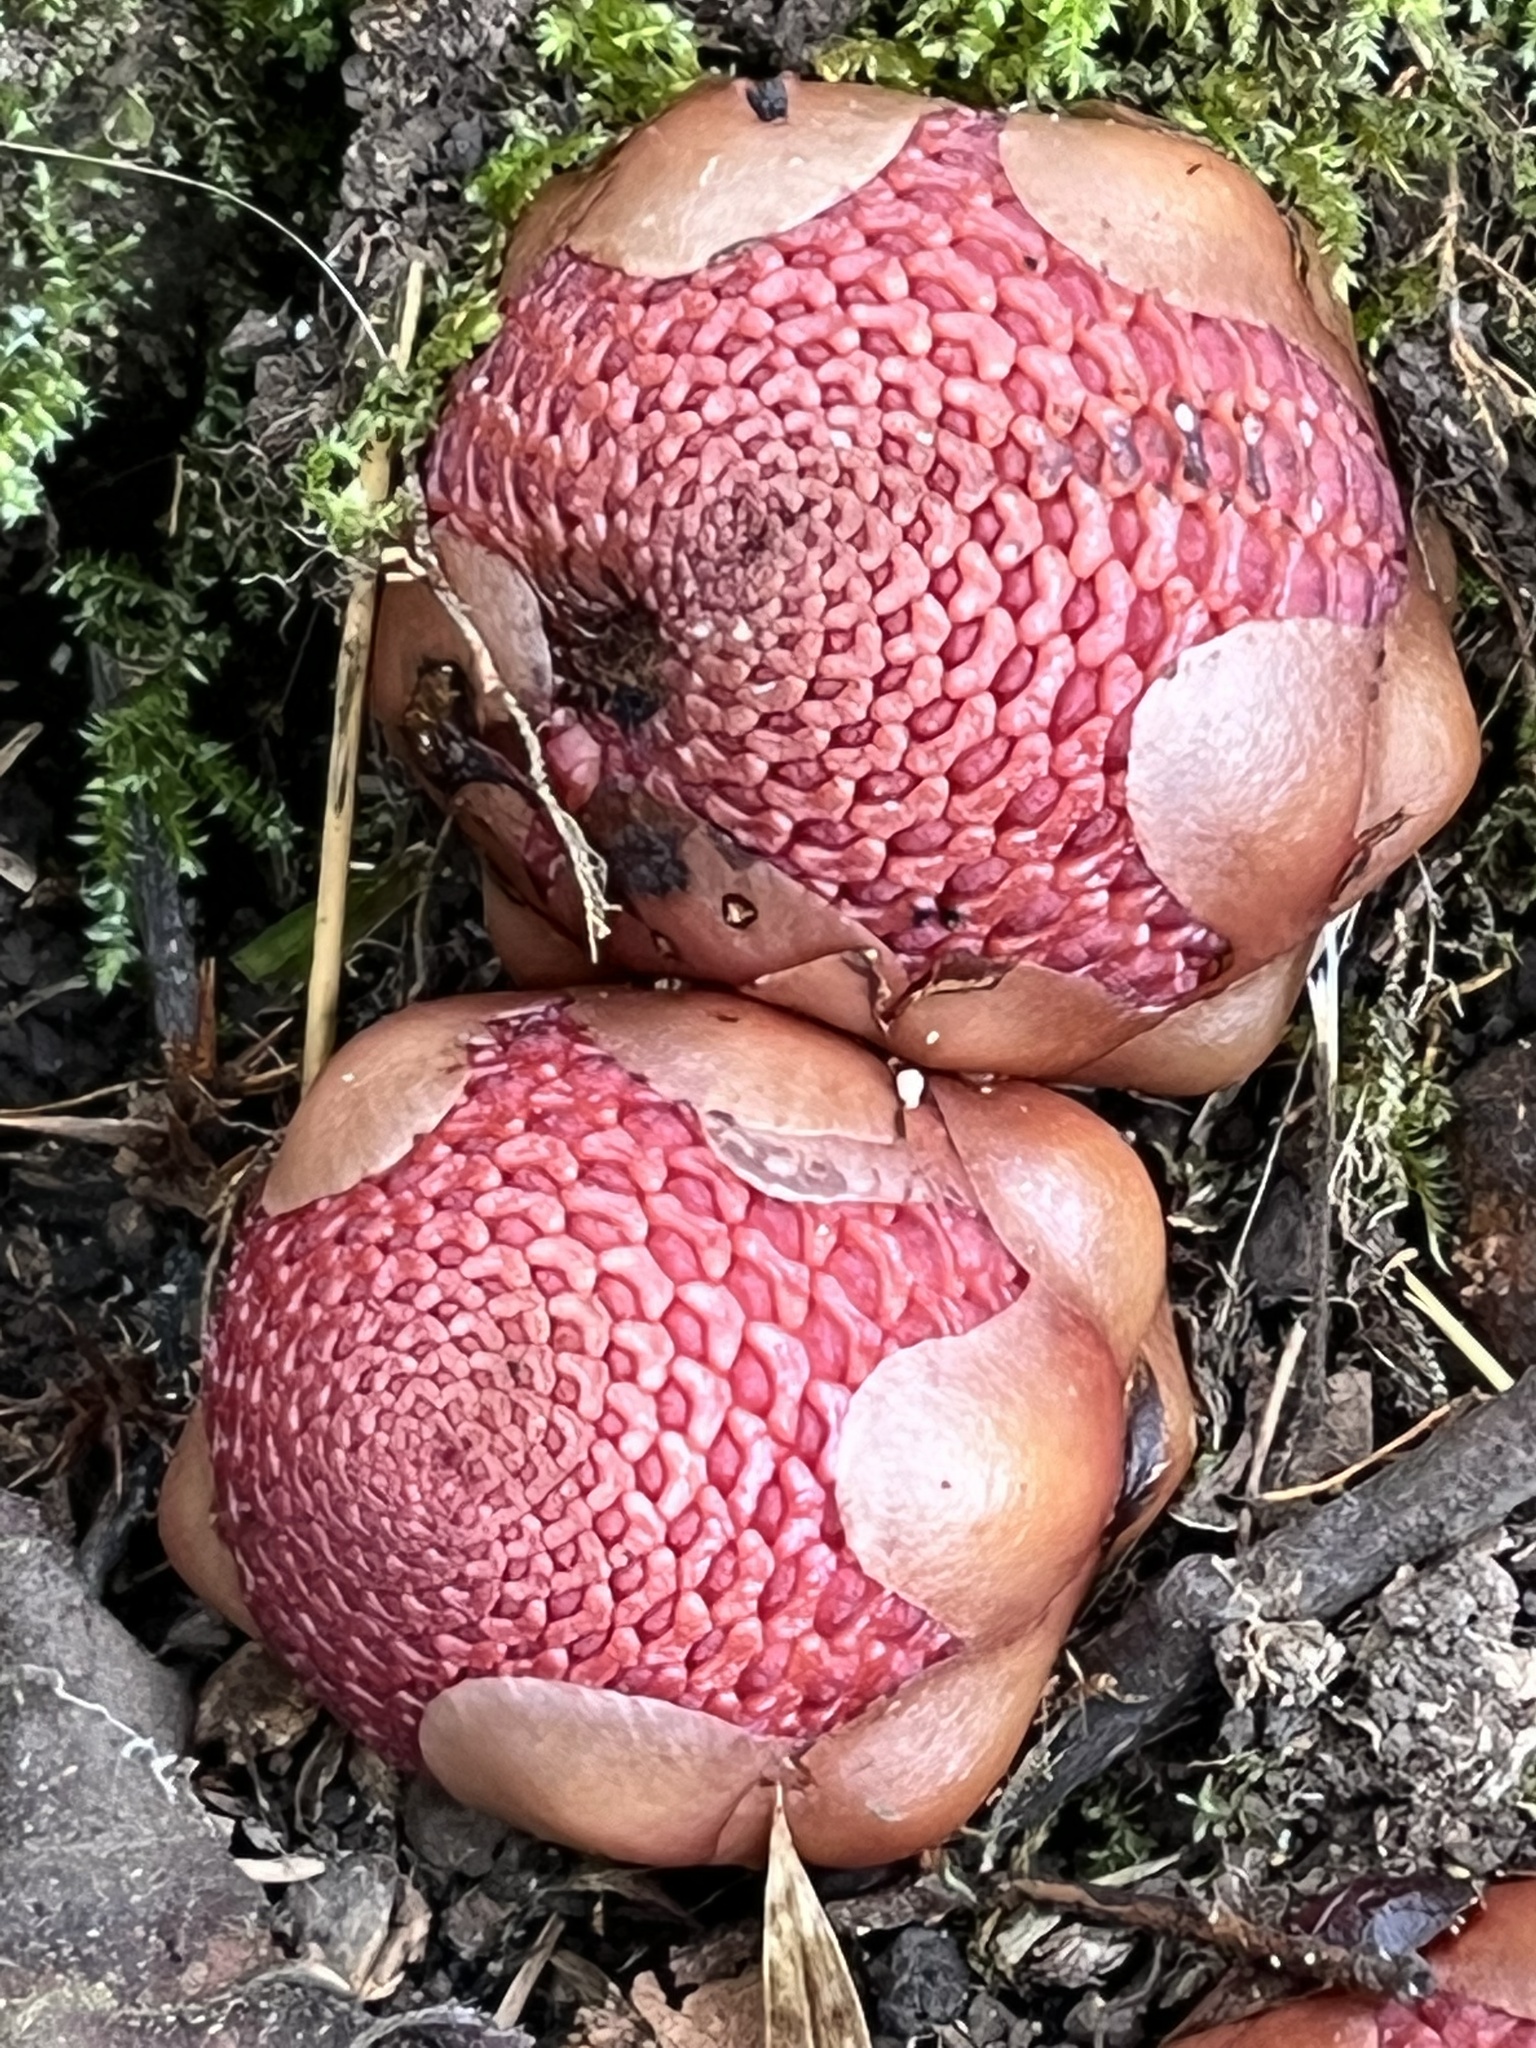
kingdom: Plantae
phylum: Tracheophyta
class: Magnoliopsida
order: Santalales
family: Balanophoraceae
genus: Balanophora
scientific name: Balanophora fungosa
